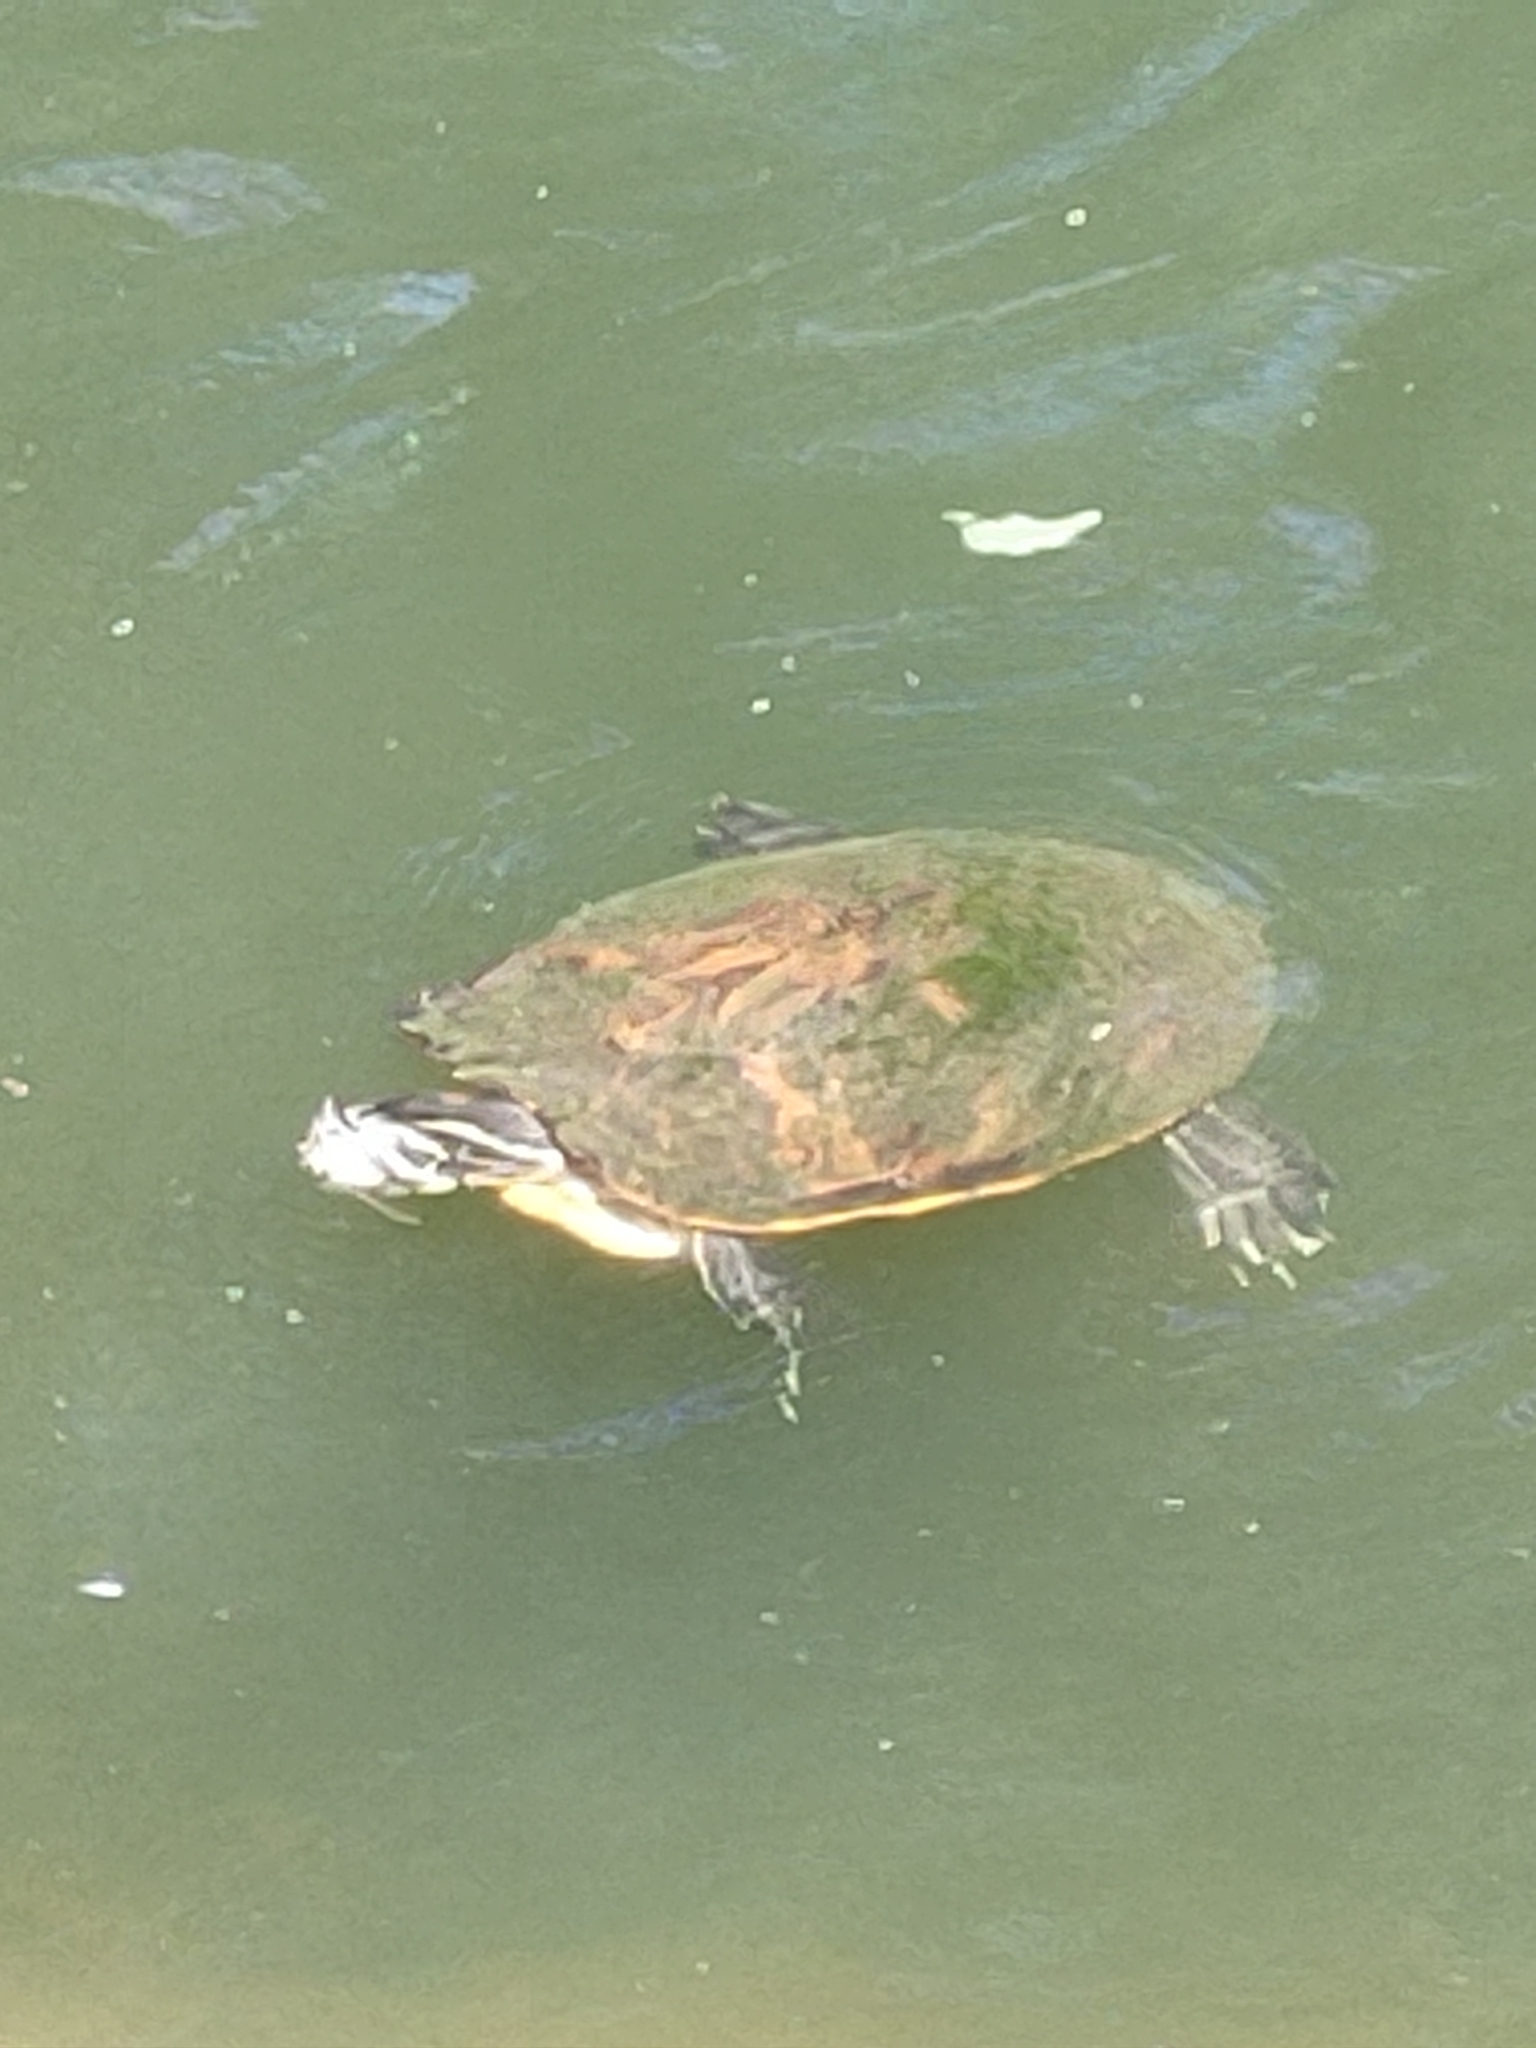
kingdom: Animalia
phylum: Chordata
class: Testudines
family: Emydidae
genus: Pseudemys
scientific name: Pseudemys nelsoni
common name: Florida red-bellied turtle
